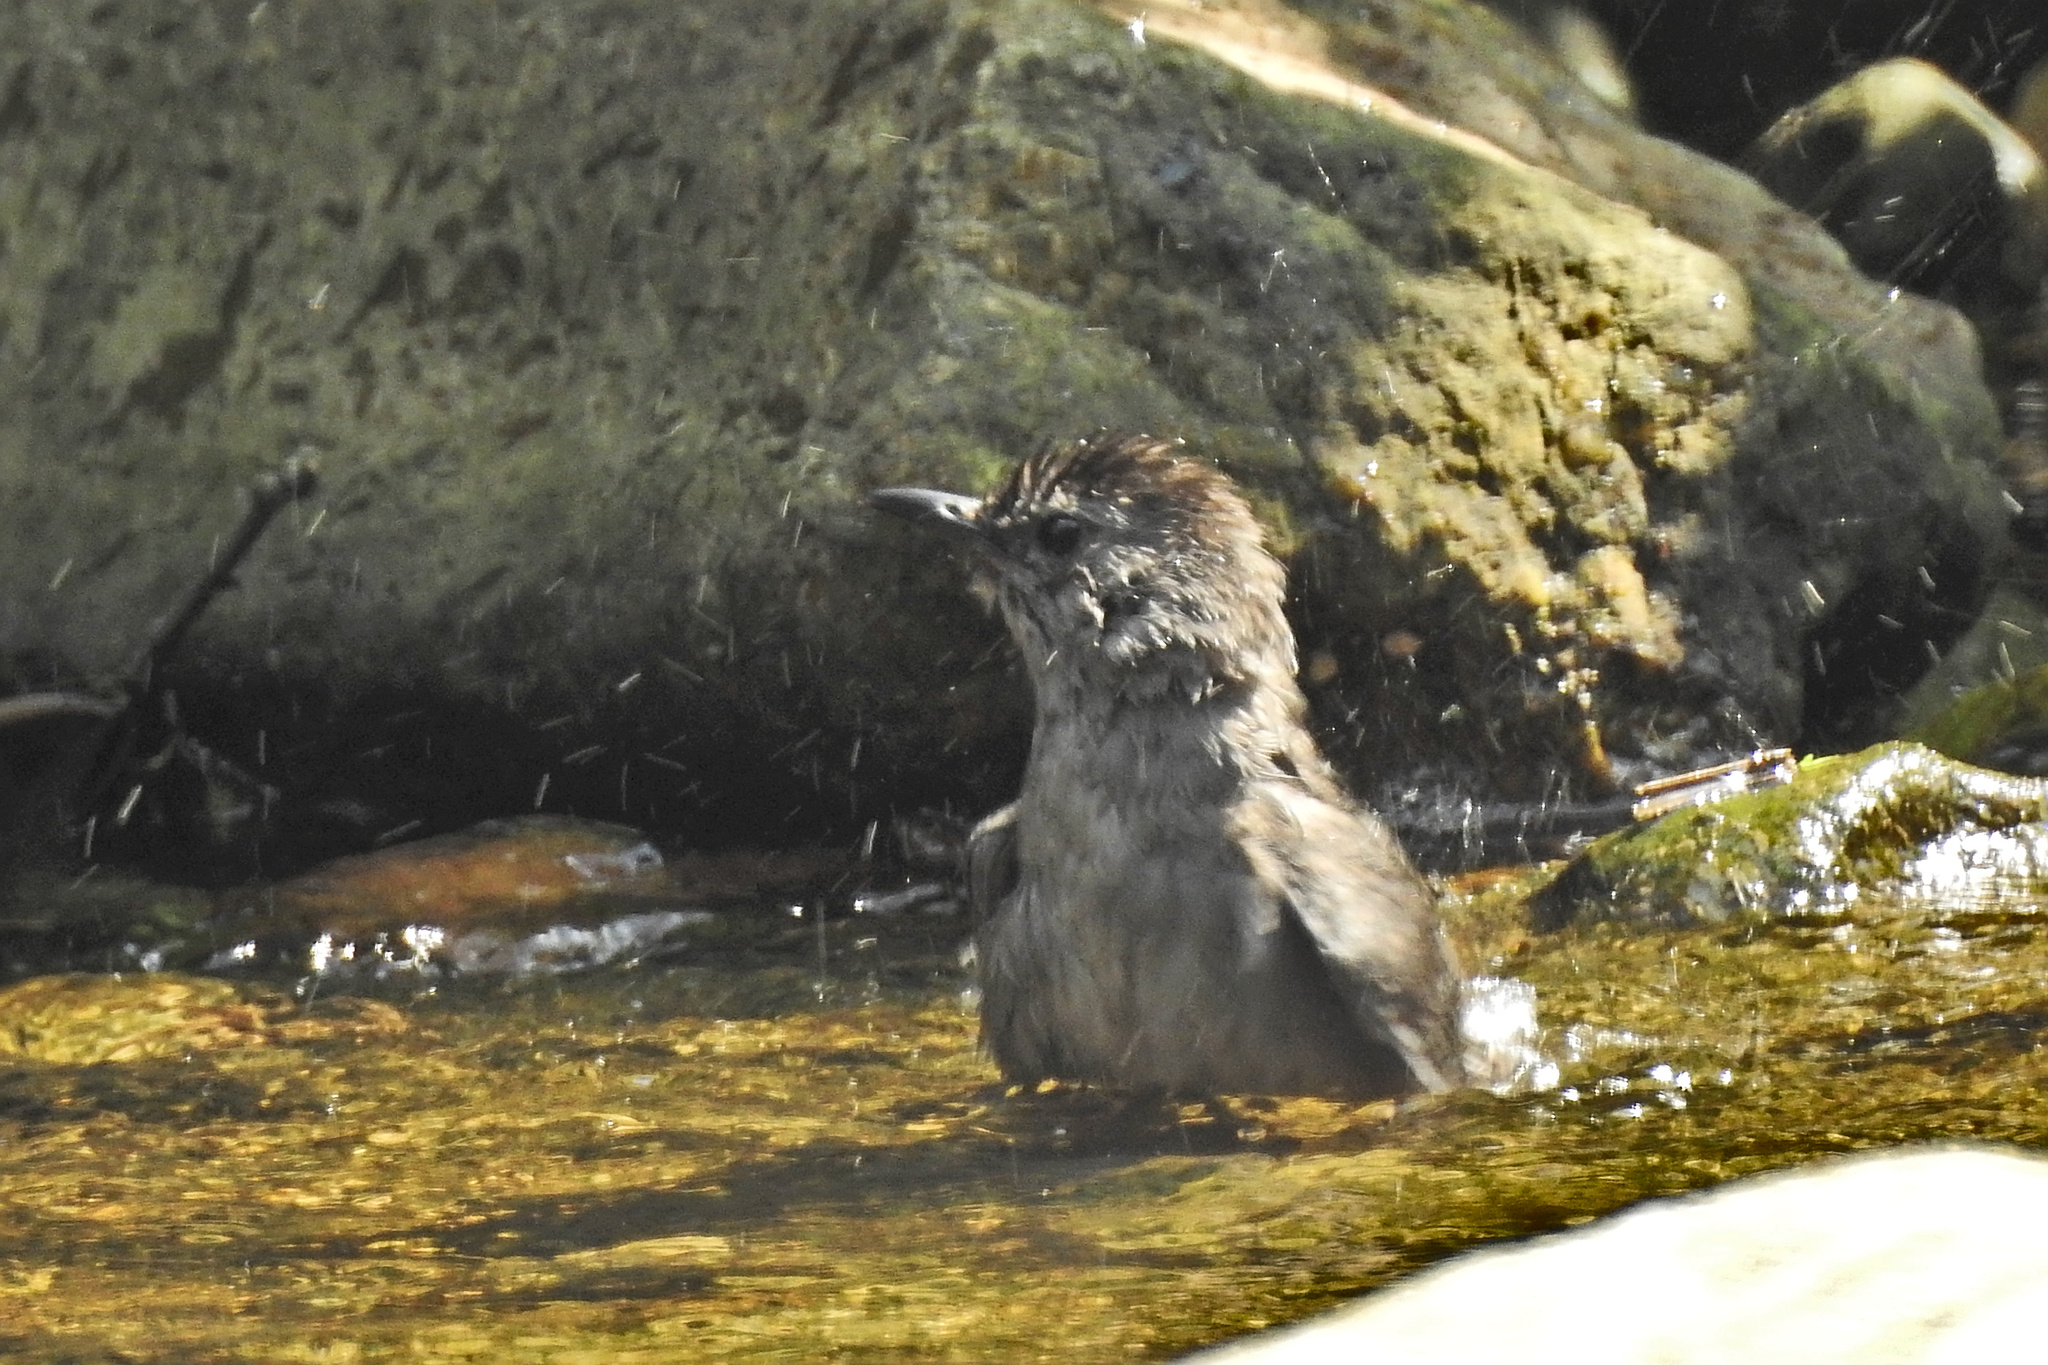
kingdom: Animalia
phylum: Chordata
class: Aves
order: Passeriformes
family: Mimidae
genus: Dumetella
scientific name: Dumetella carolinensis
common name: Gray catbird
